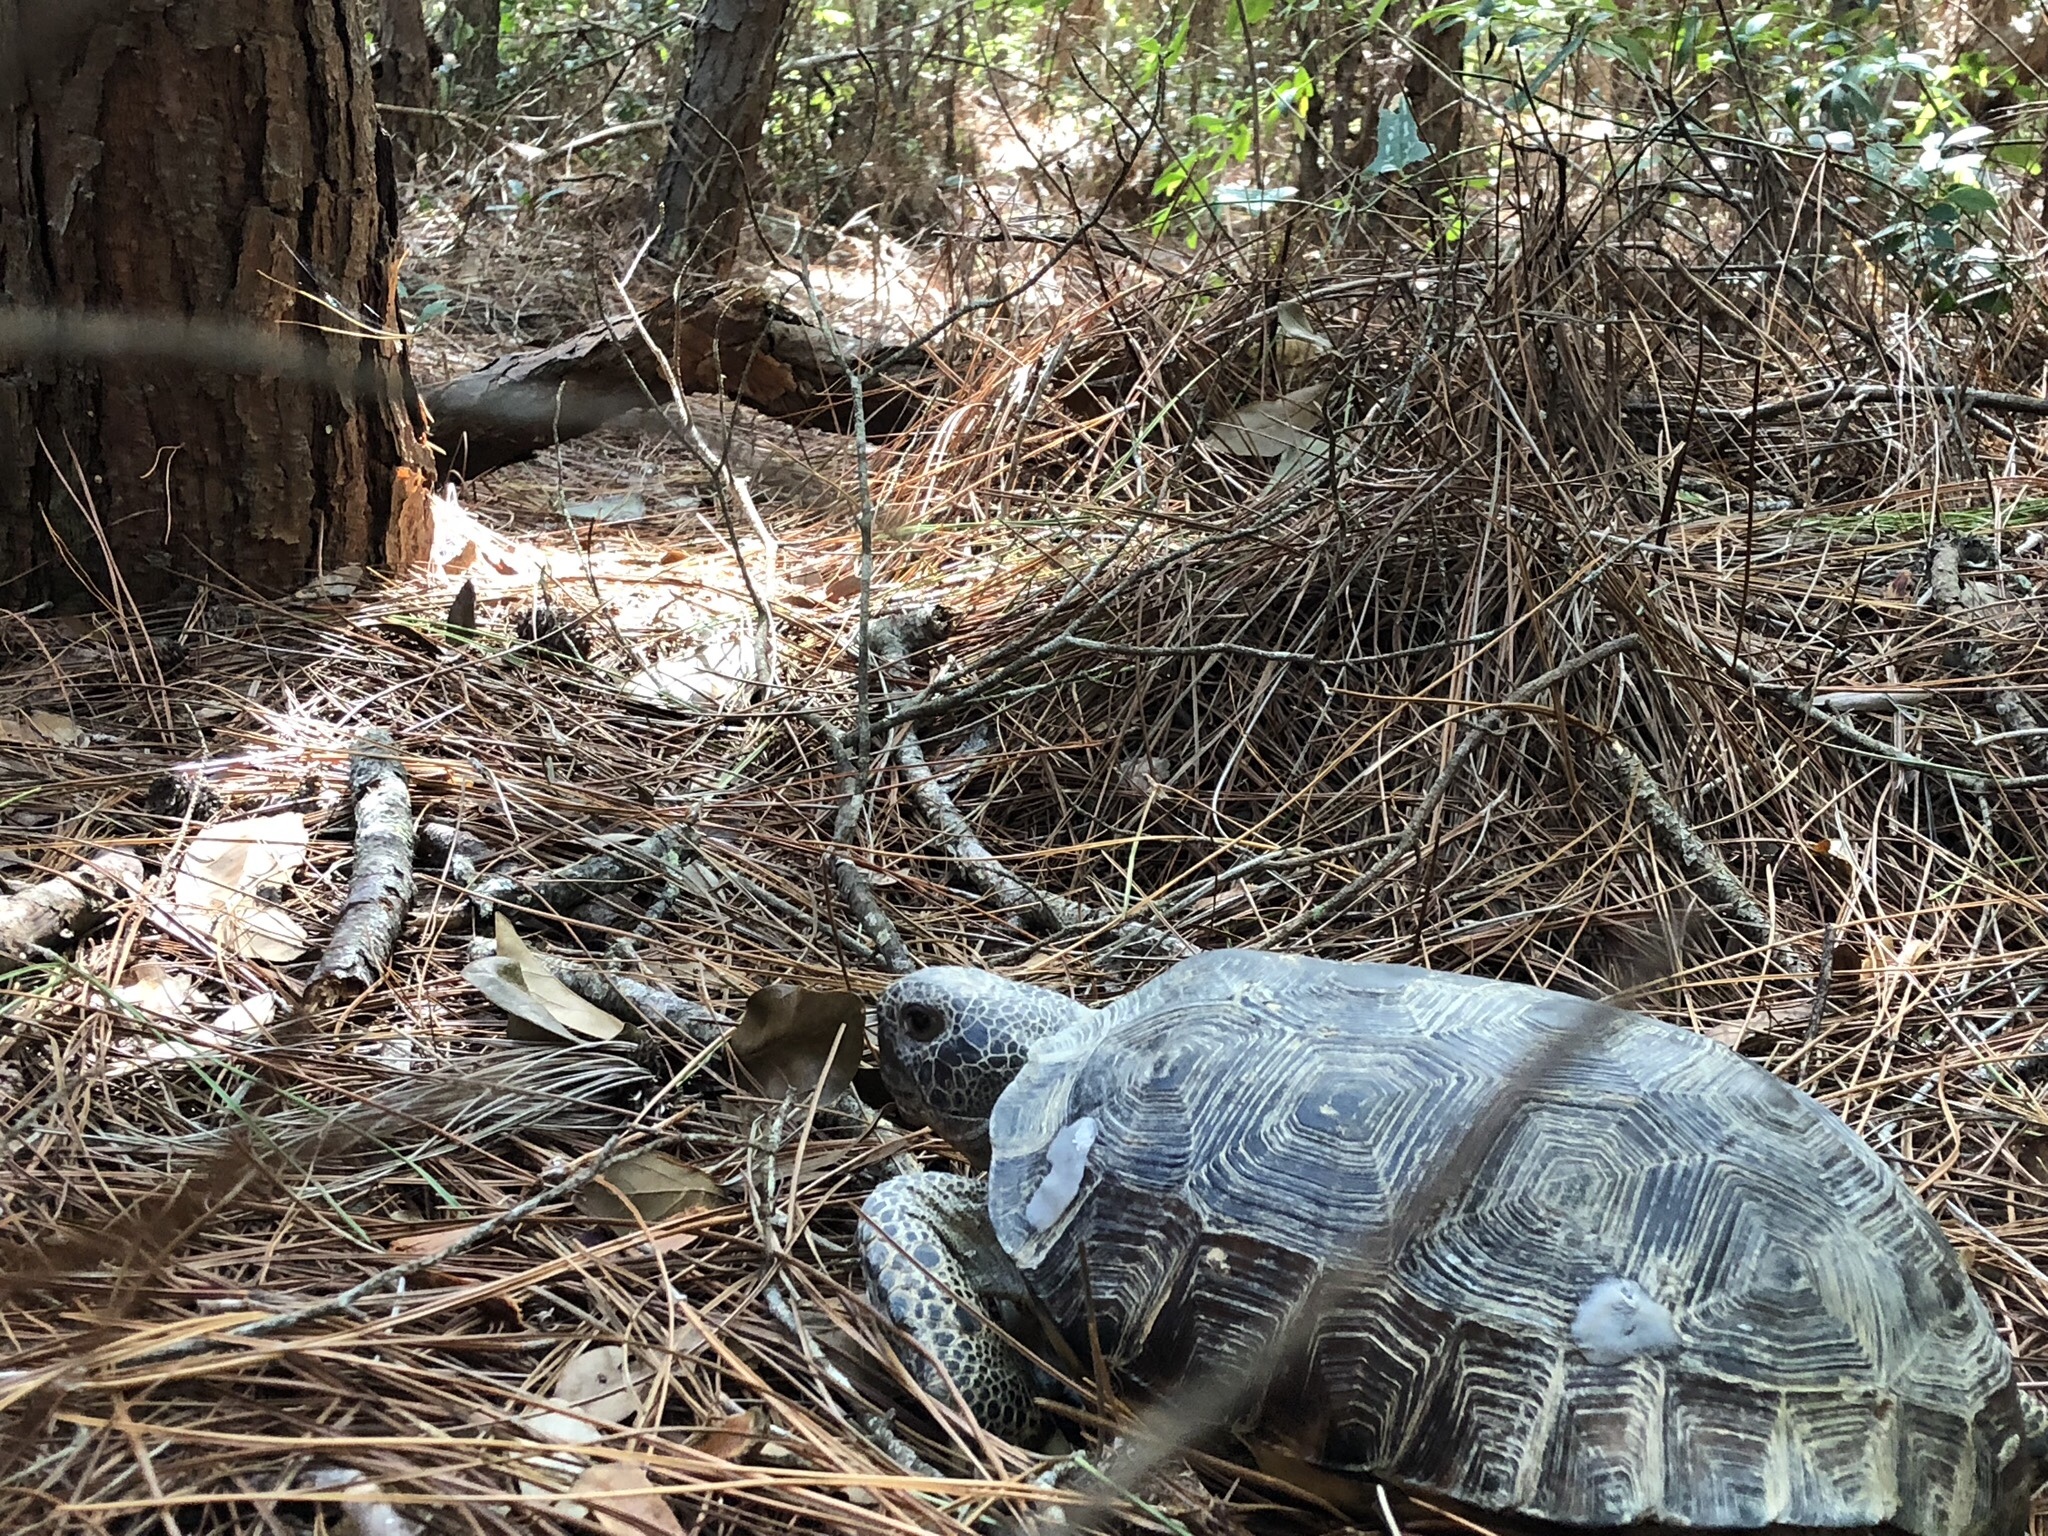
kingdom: Animalia
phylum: Chordata
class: Testudines
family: Testudinidae
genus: Gopherus
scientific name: Gopherus polyphemus
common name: Florida gopher tortoise
